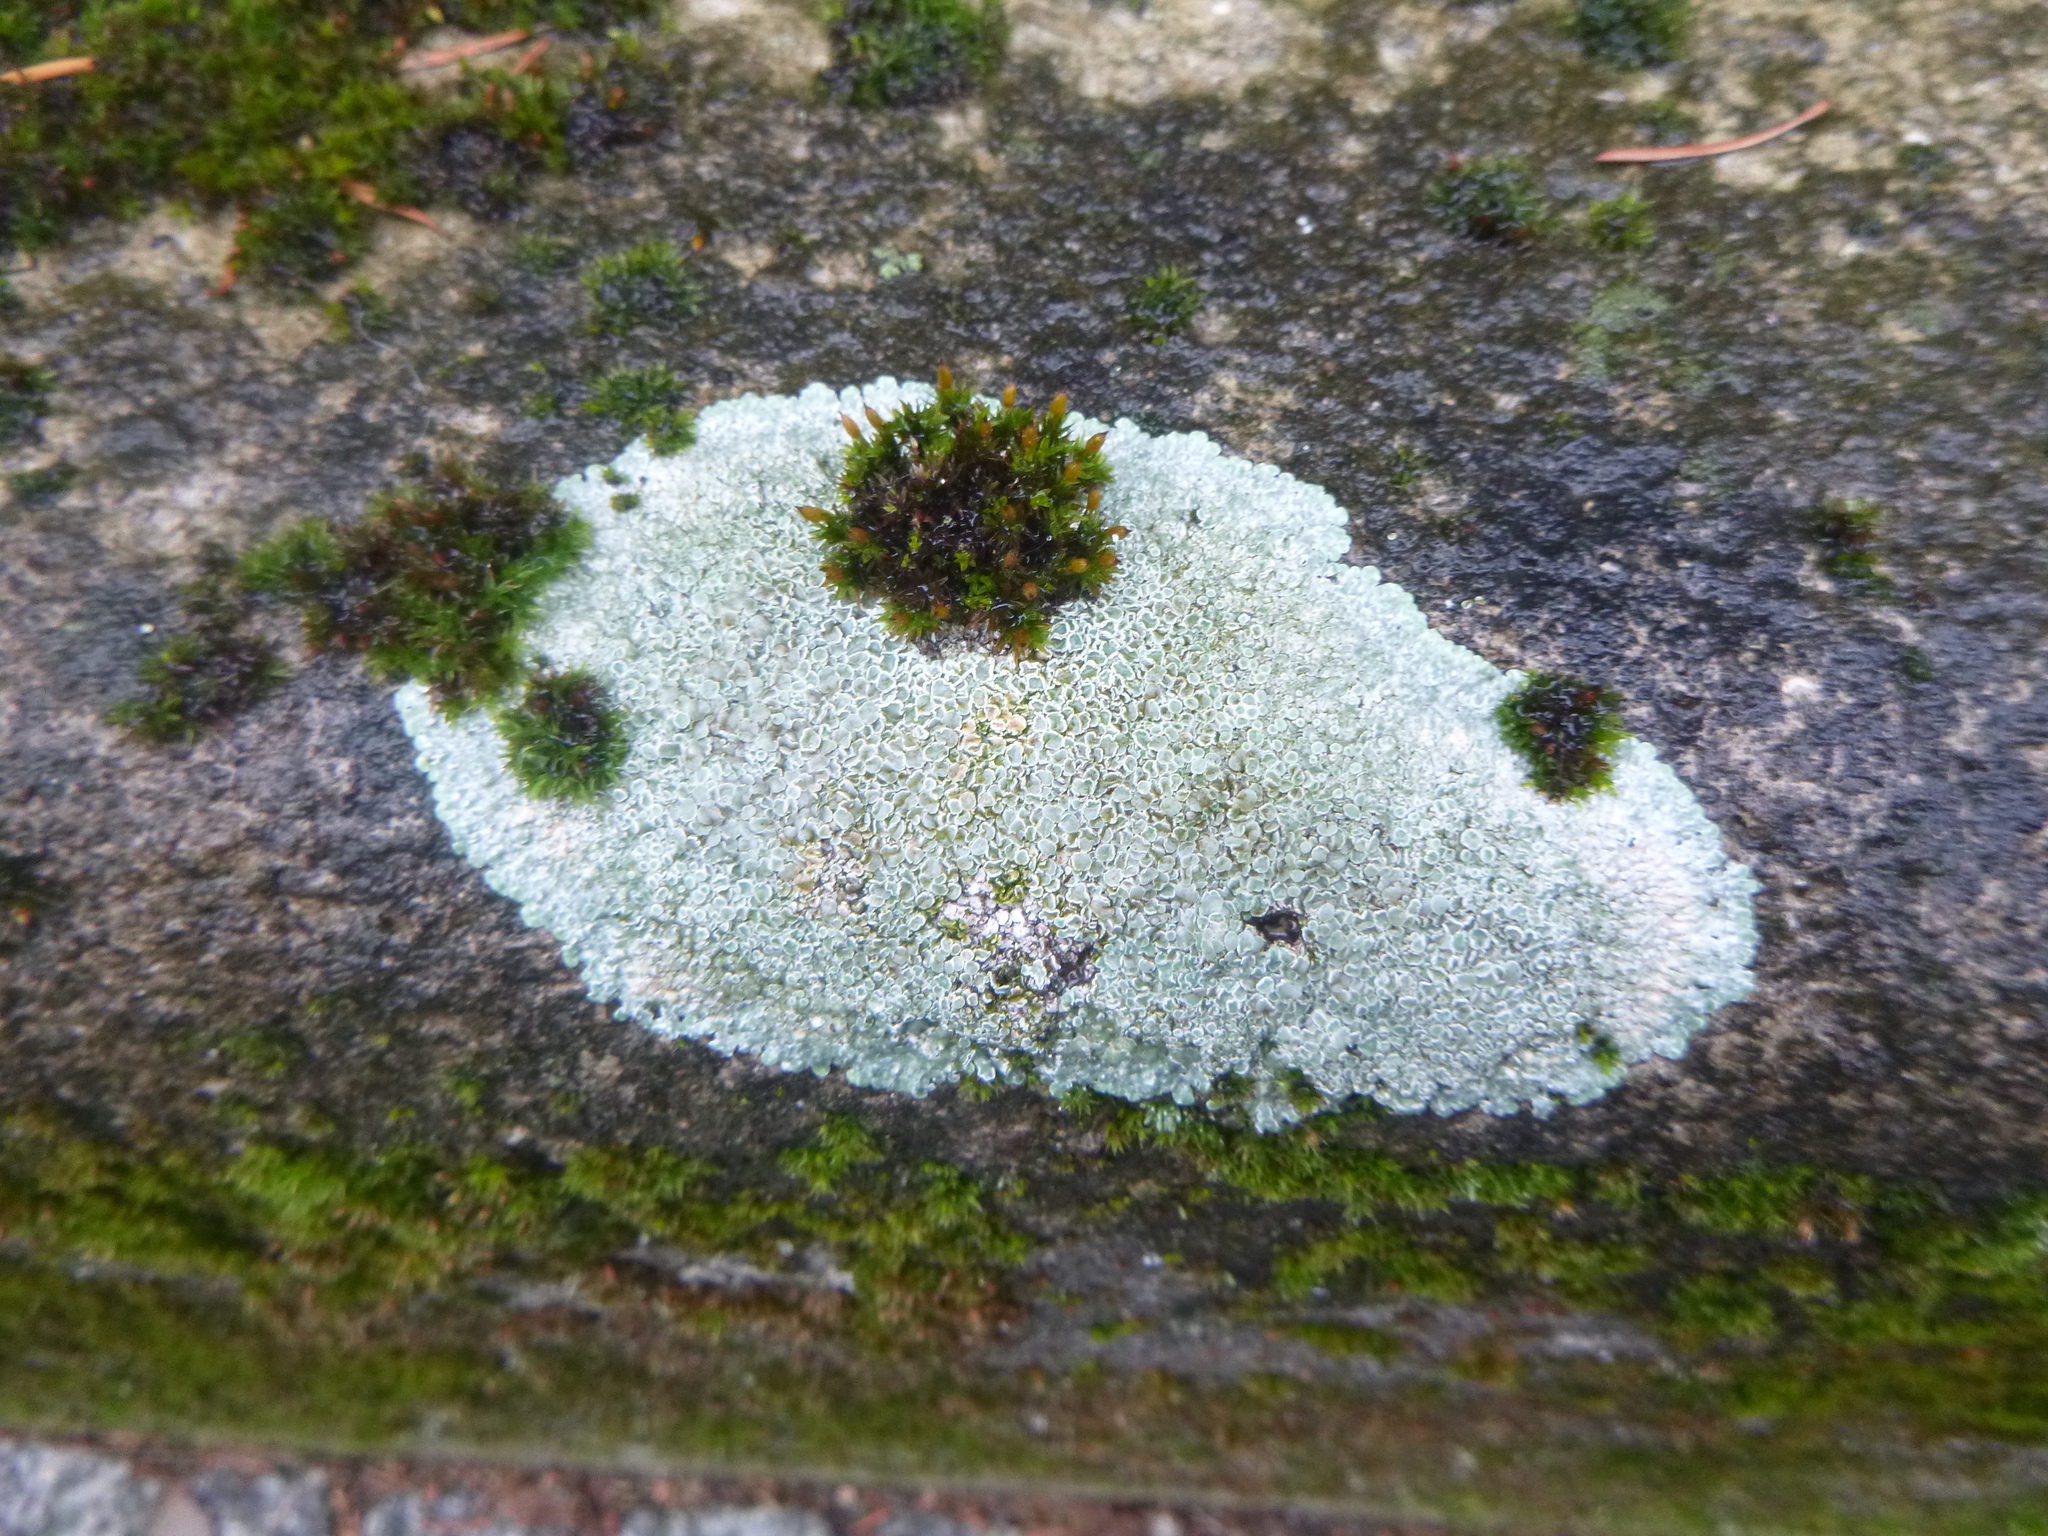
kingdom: Fungi
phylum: Ascomycota
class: Lecanoromycetes
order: Lecanorales
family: Lecanoraceae
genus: Protoparmeliopsis
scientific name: Protoparmeliopsis muralis
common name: Stonewall rim lichen
